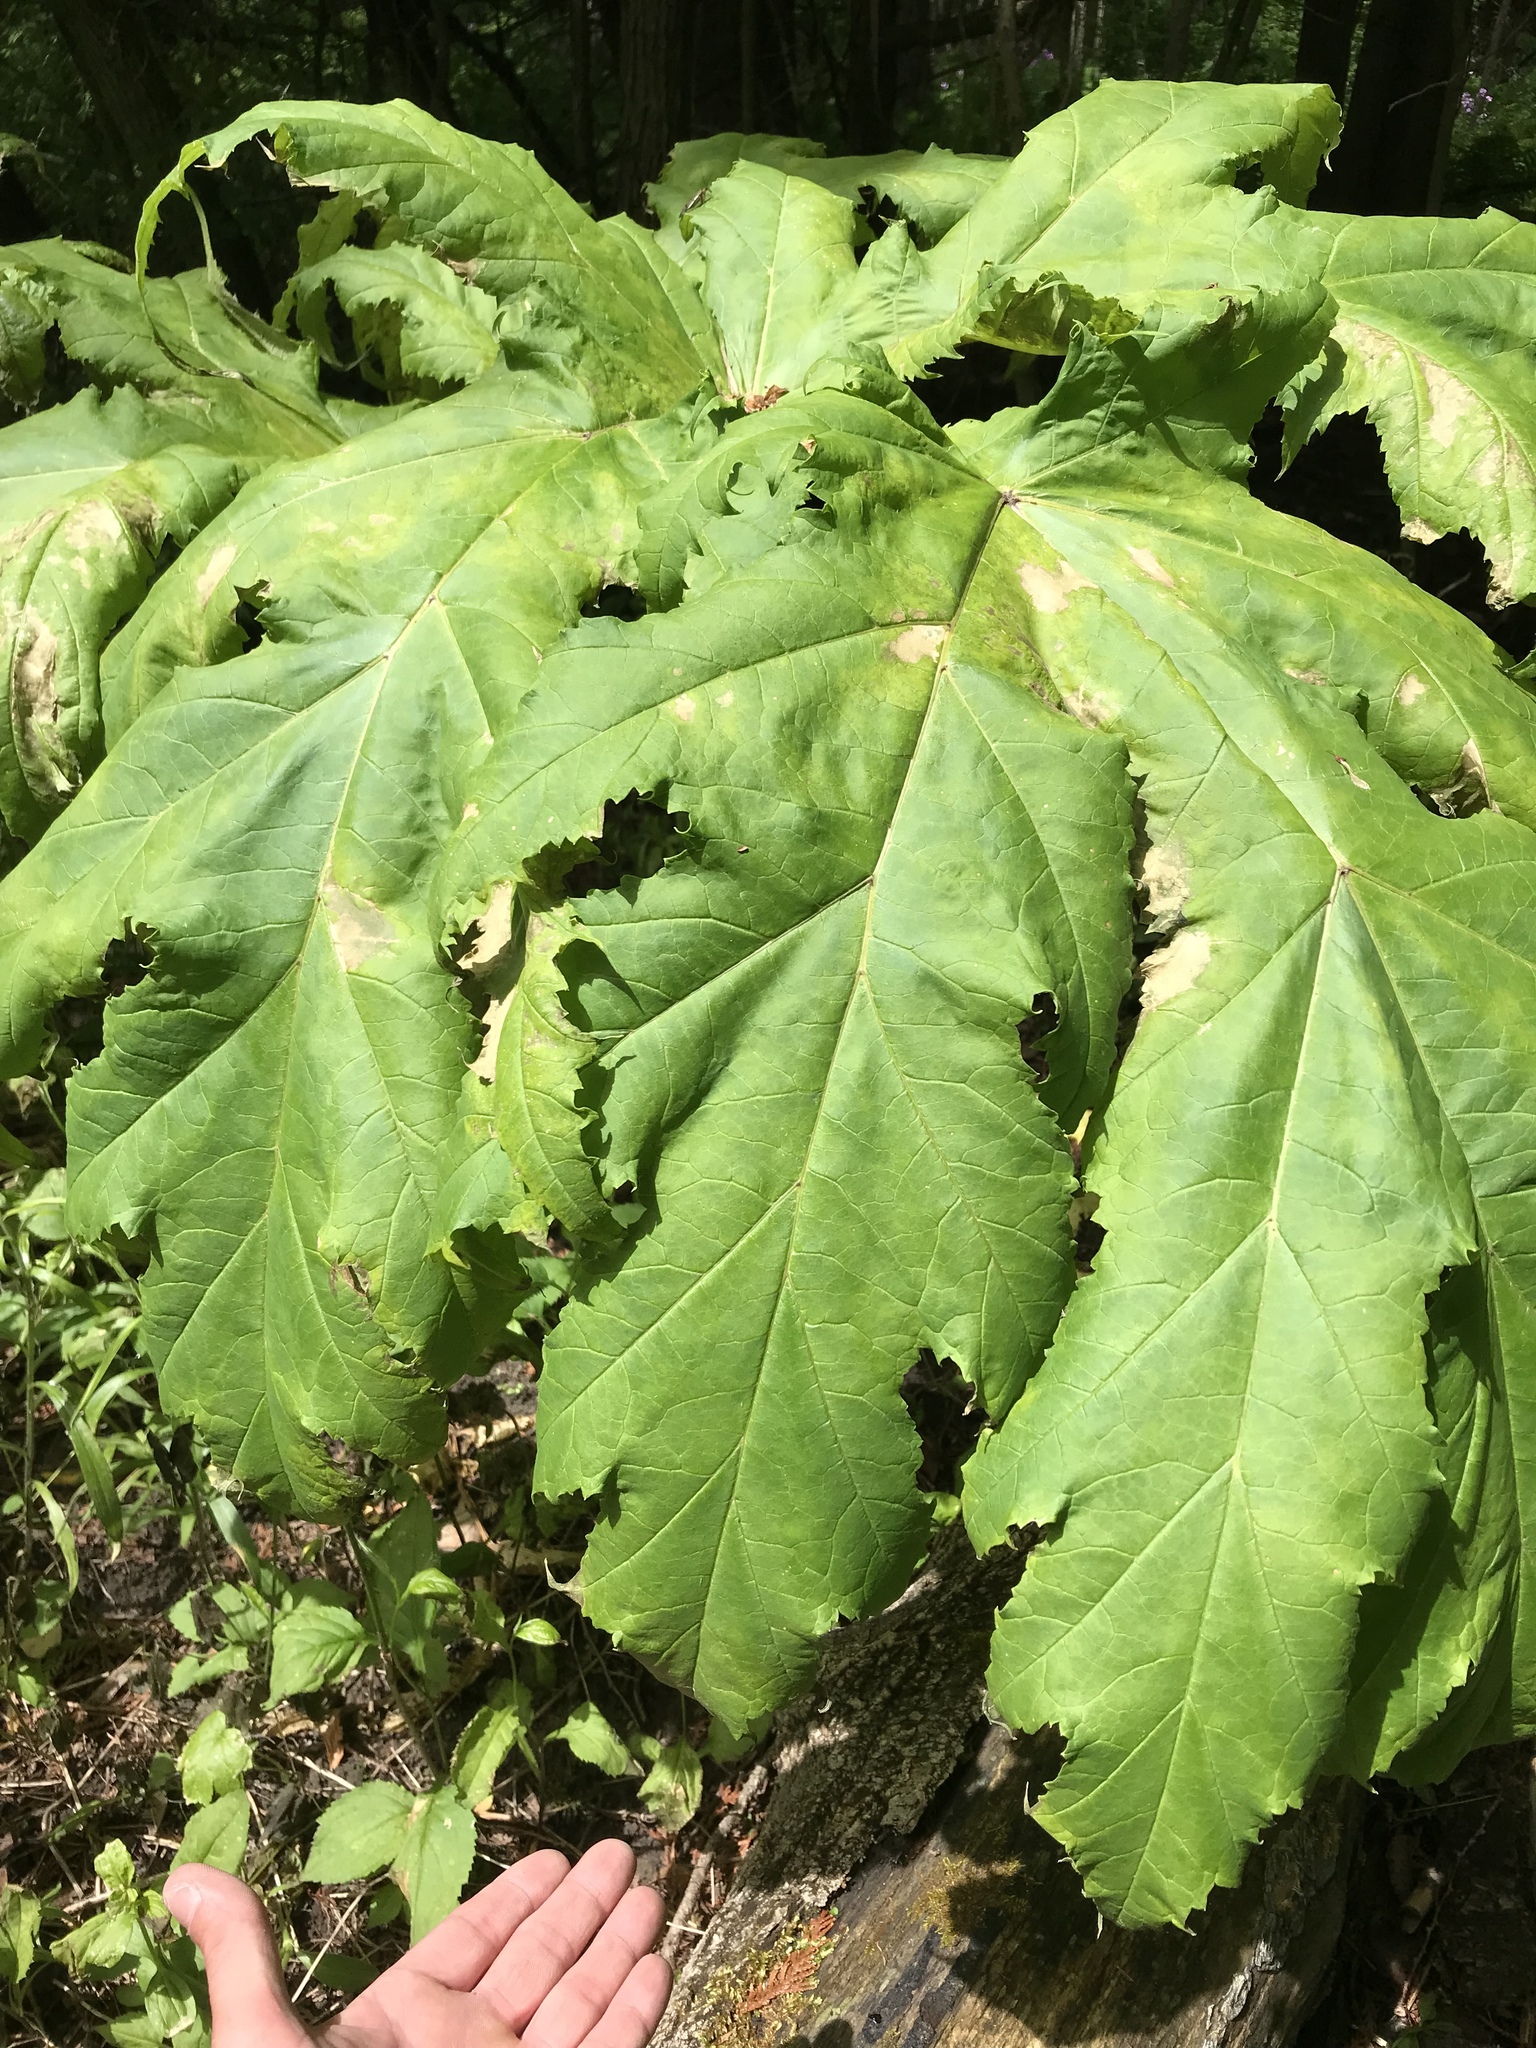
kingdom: Plantae
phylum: Tracheophyta
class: Magnoliopsida
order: Apiales
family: Apiaceae
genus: Heracleum
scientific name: Heracleum mantegazzianum
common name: Giant hogweed
